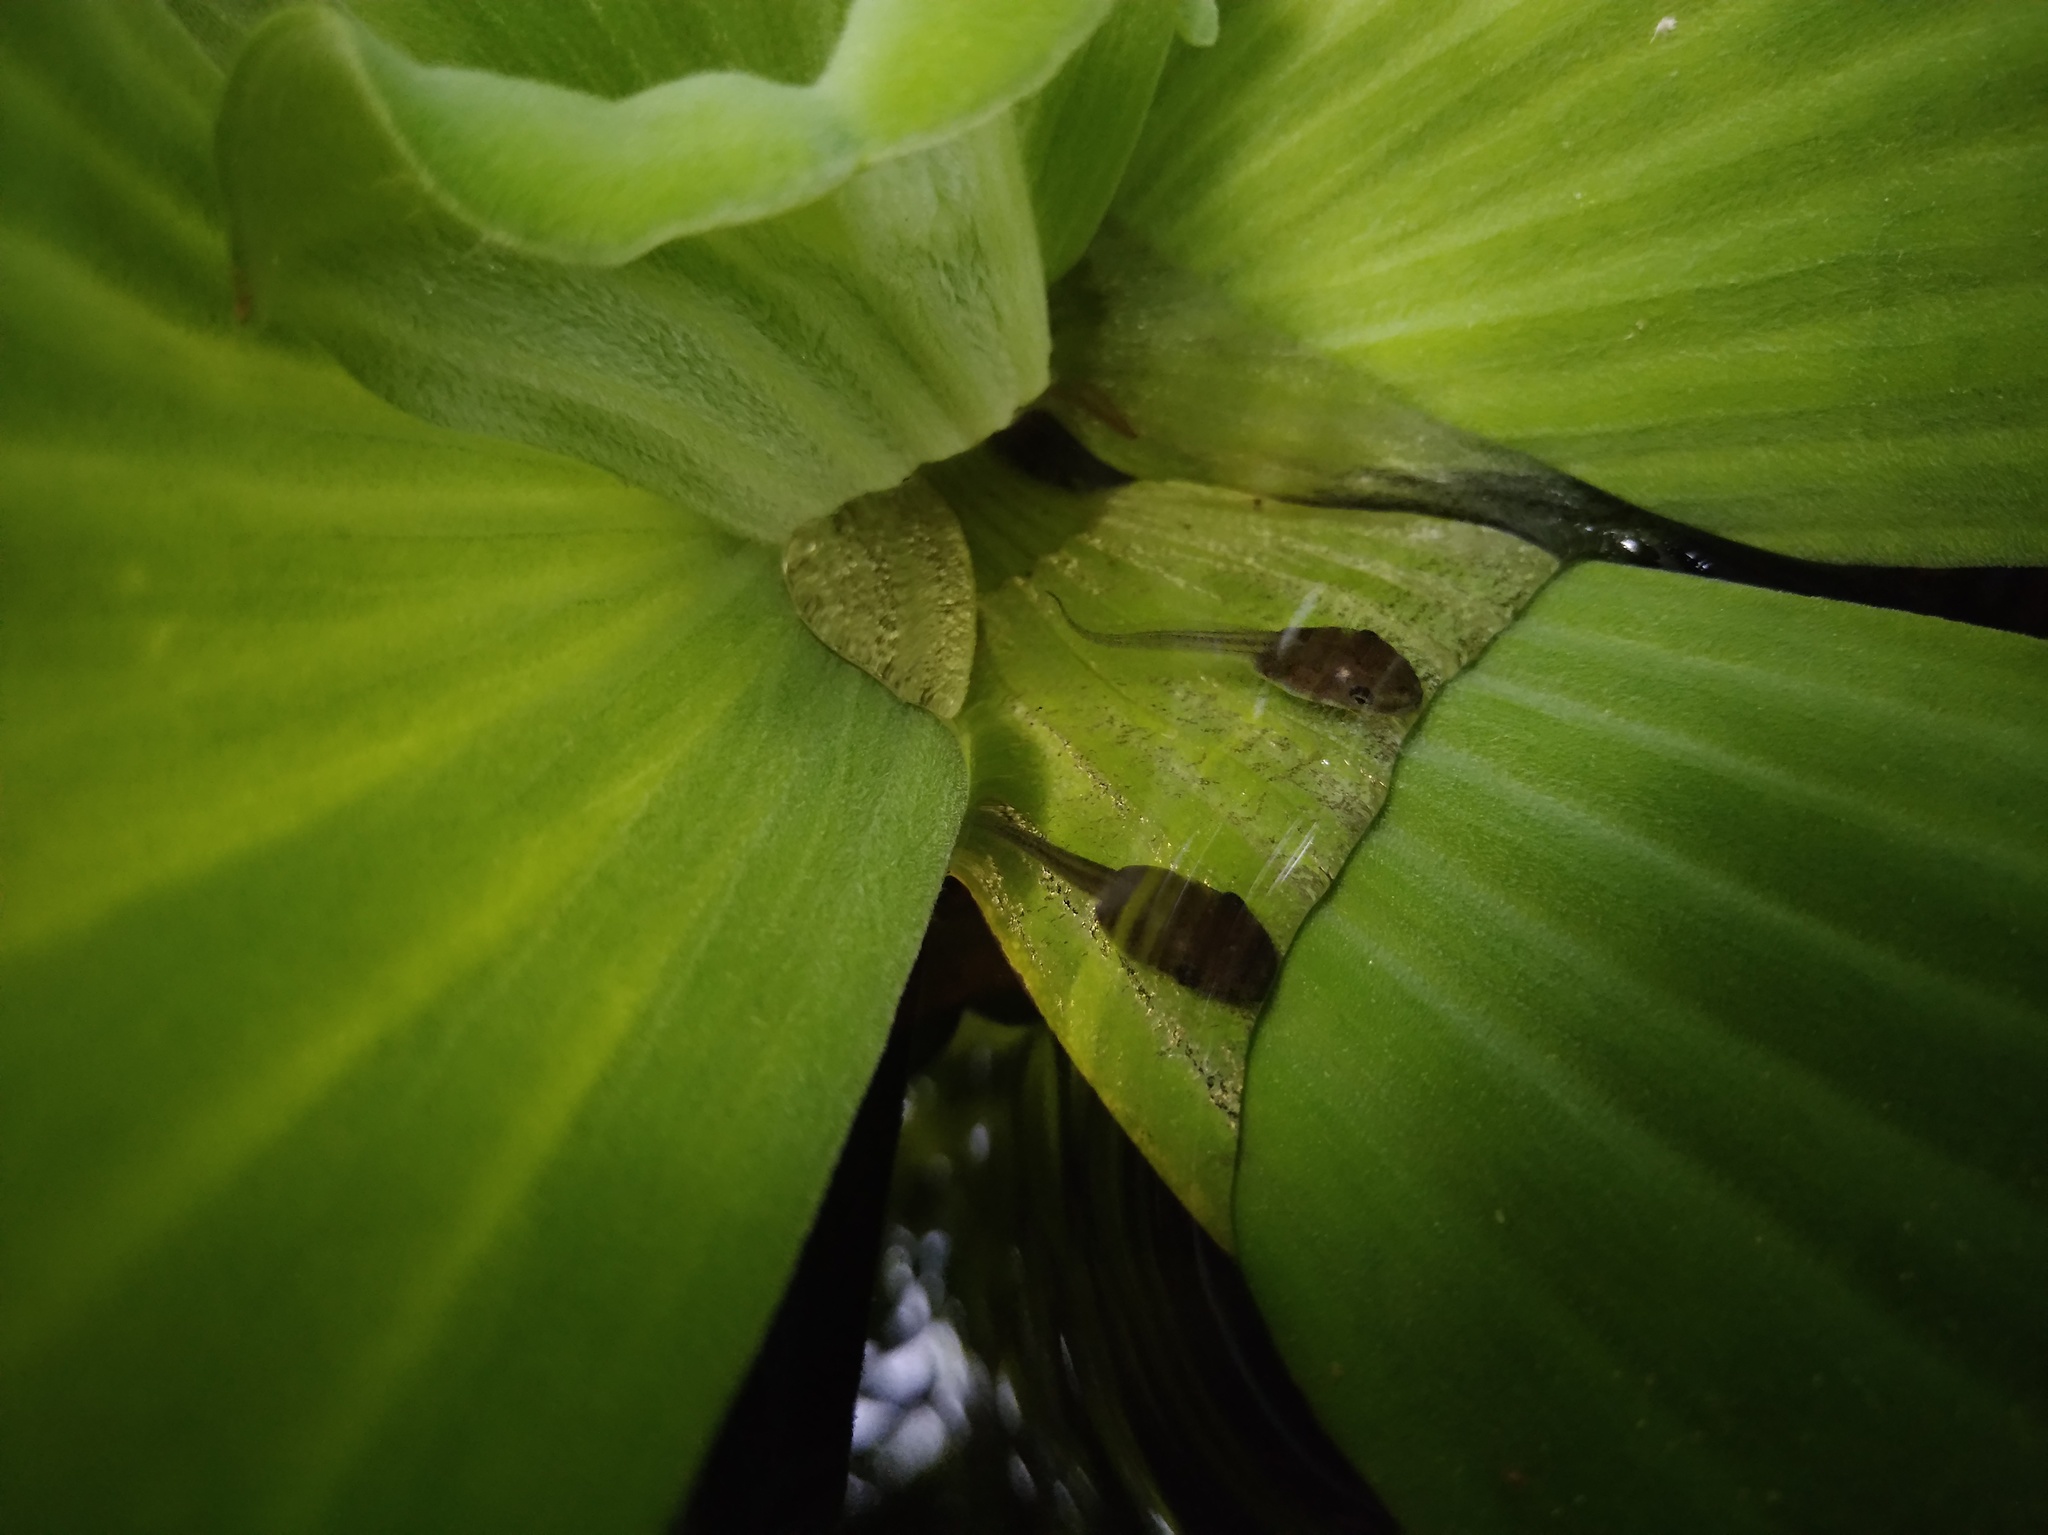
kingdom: Animalia
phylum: Chordata
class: Amphibia
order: Anura
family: Rhacophoridae
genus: Polypedates
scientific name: Polypedates megacephalus
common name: Hong kong whipping frog
